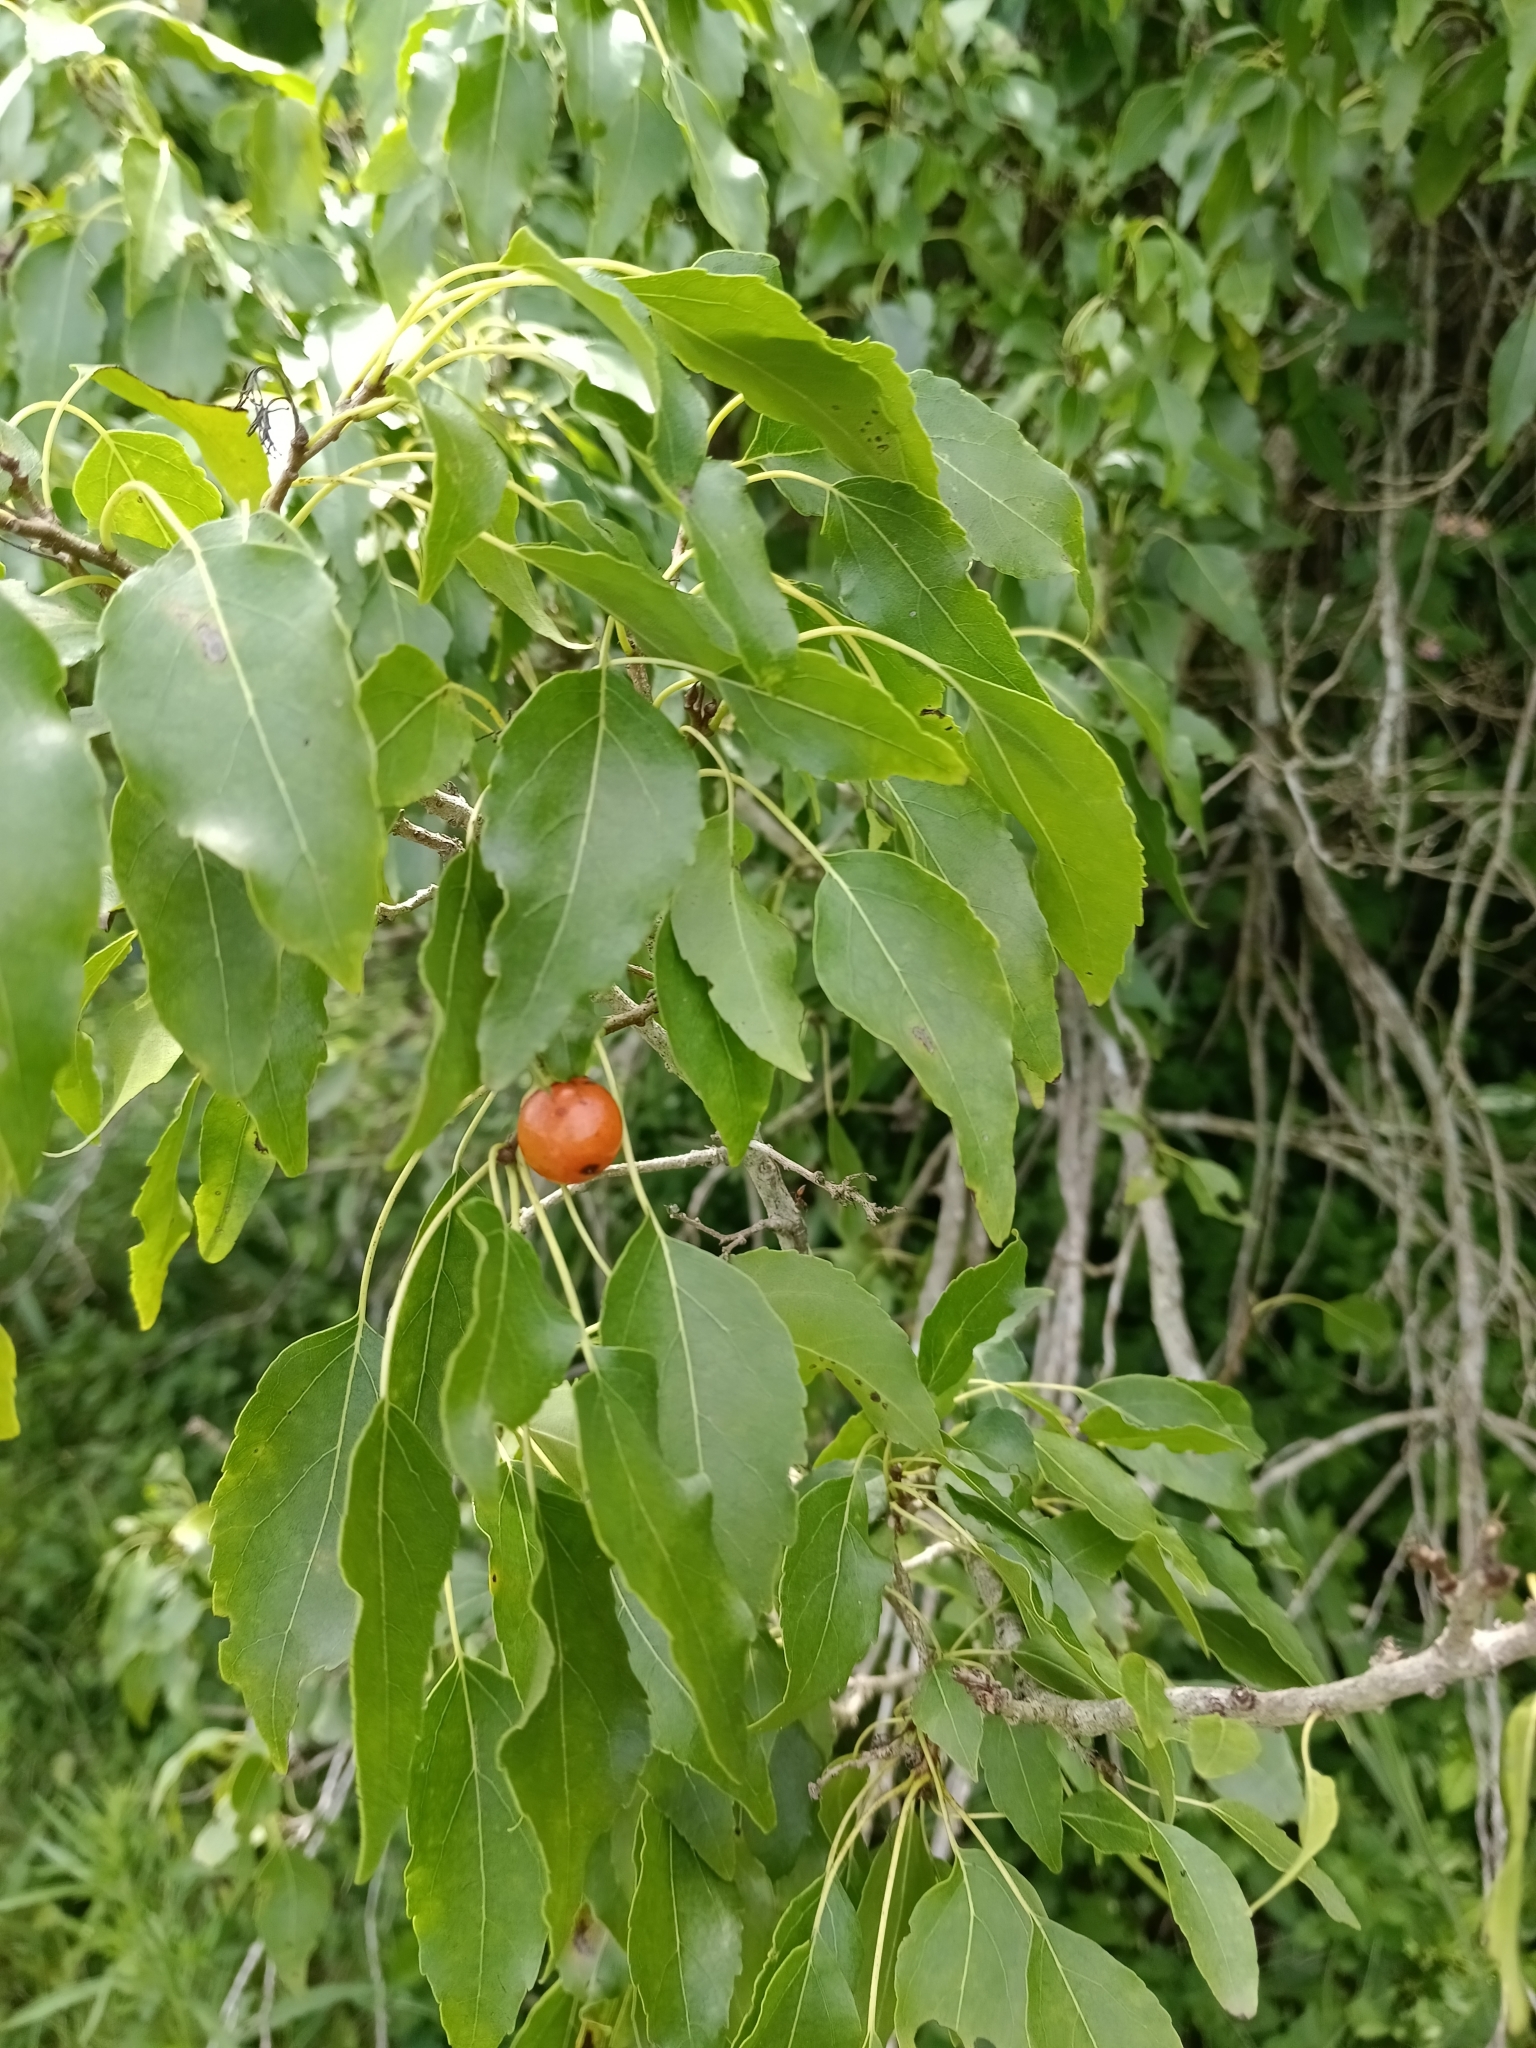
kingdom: Plantae
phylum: Tracheophyta
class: Magnoliopsida
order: Boraginales
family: Cordiaceae
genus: Cordia
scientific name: Cordia caffra
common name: Septee tree
